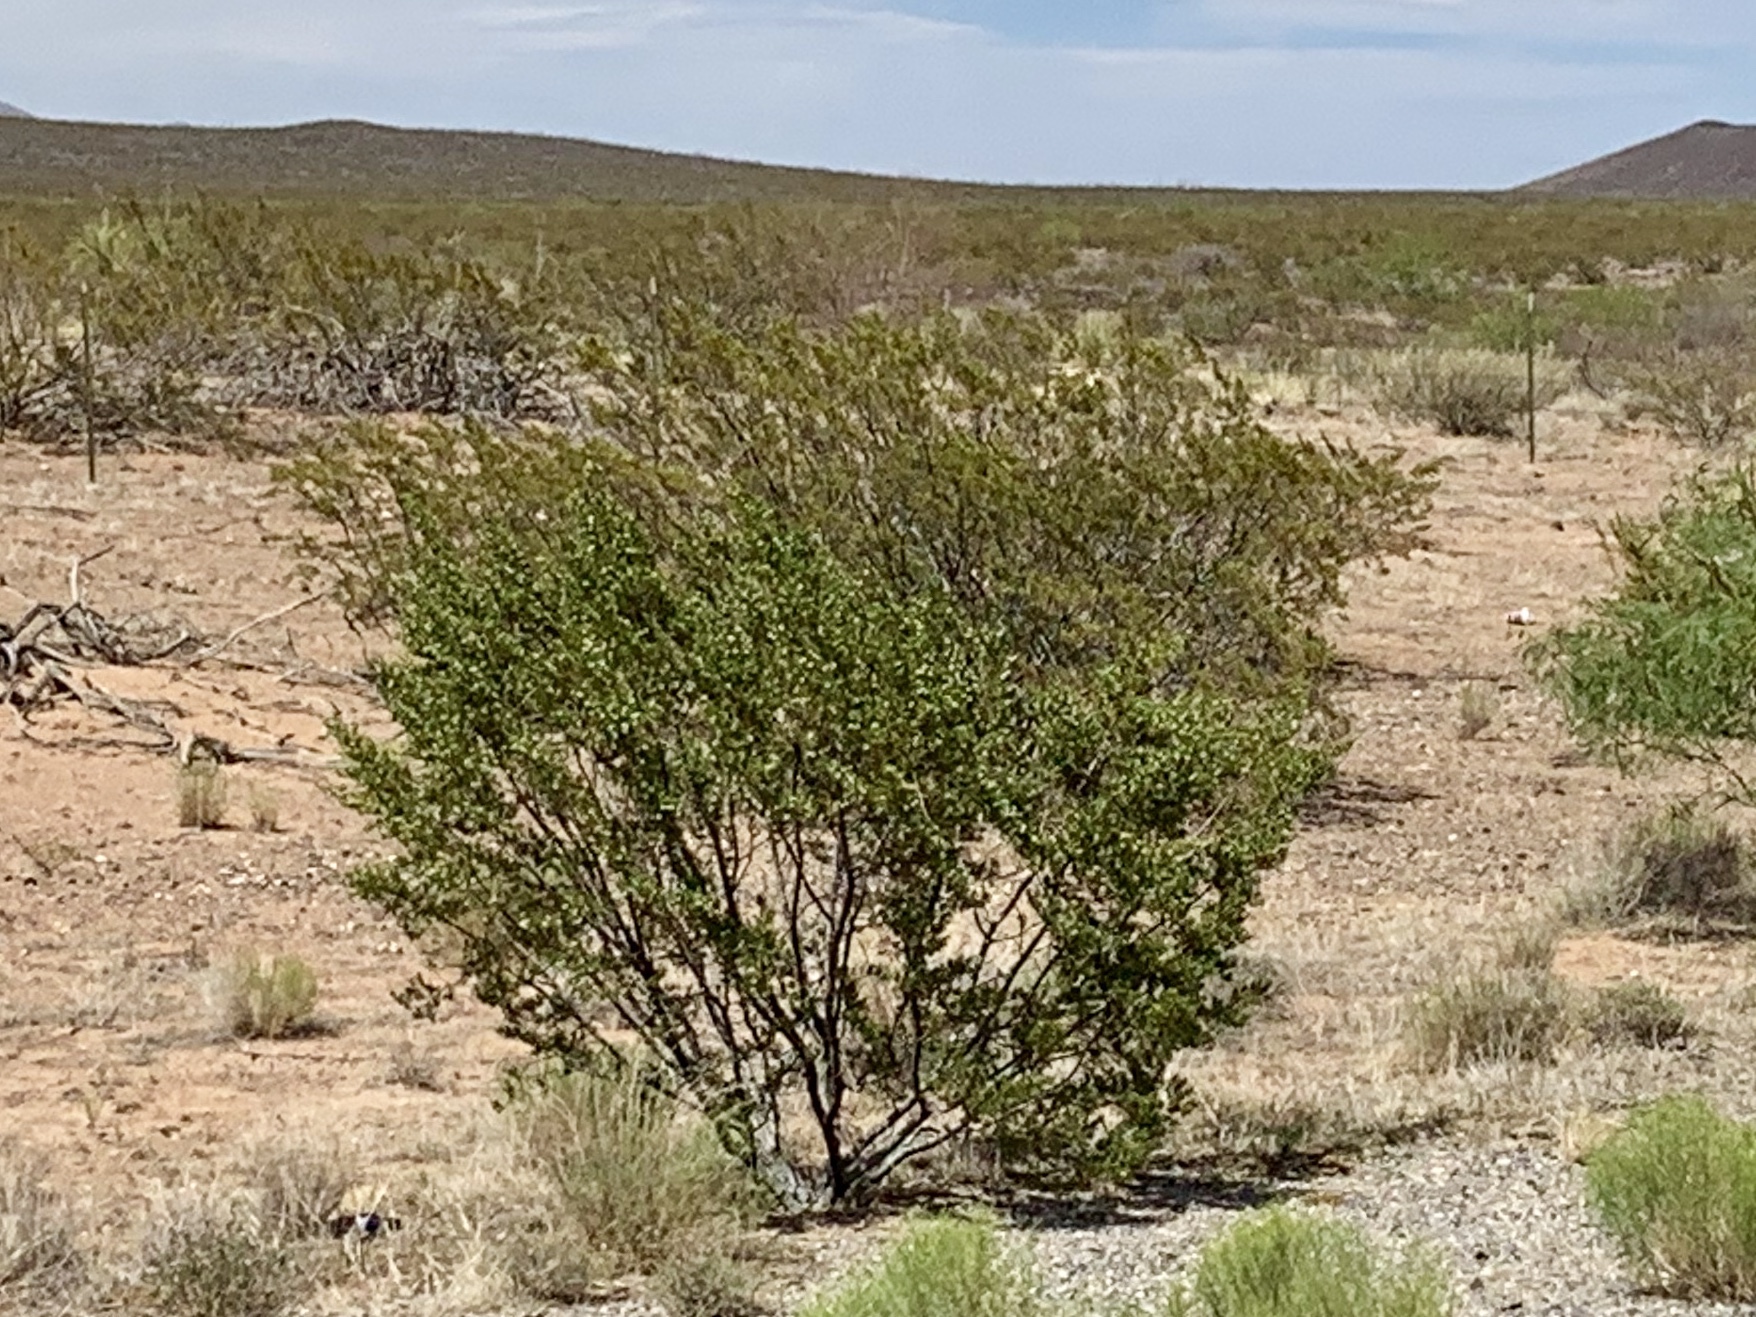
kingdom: Plantae
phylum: Tracheophyta
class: Magnoliopsida
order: Zygophyllales
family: Zygophyllaceae
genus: Larrea
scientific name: Larrea tridentata
